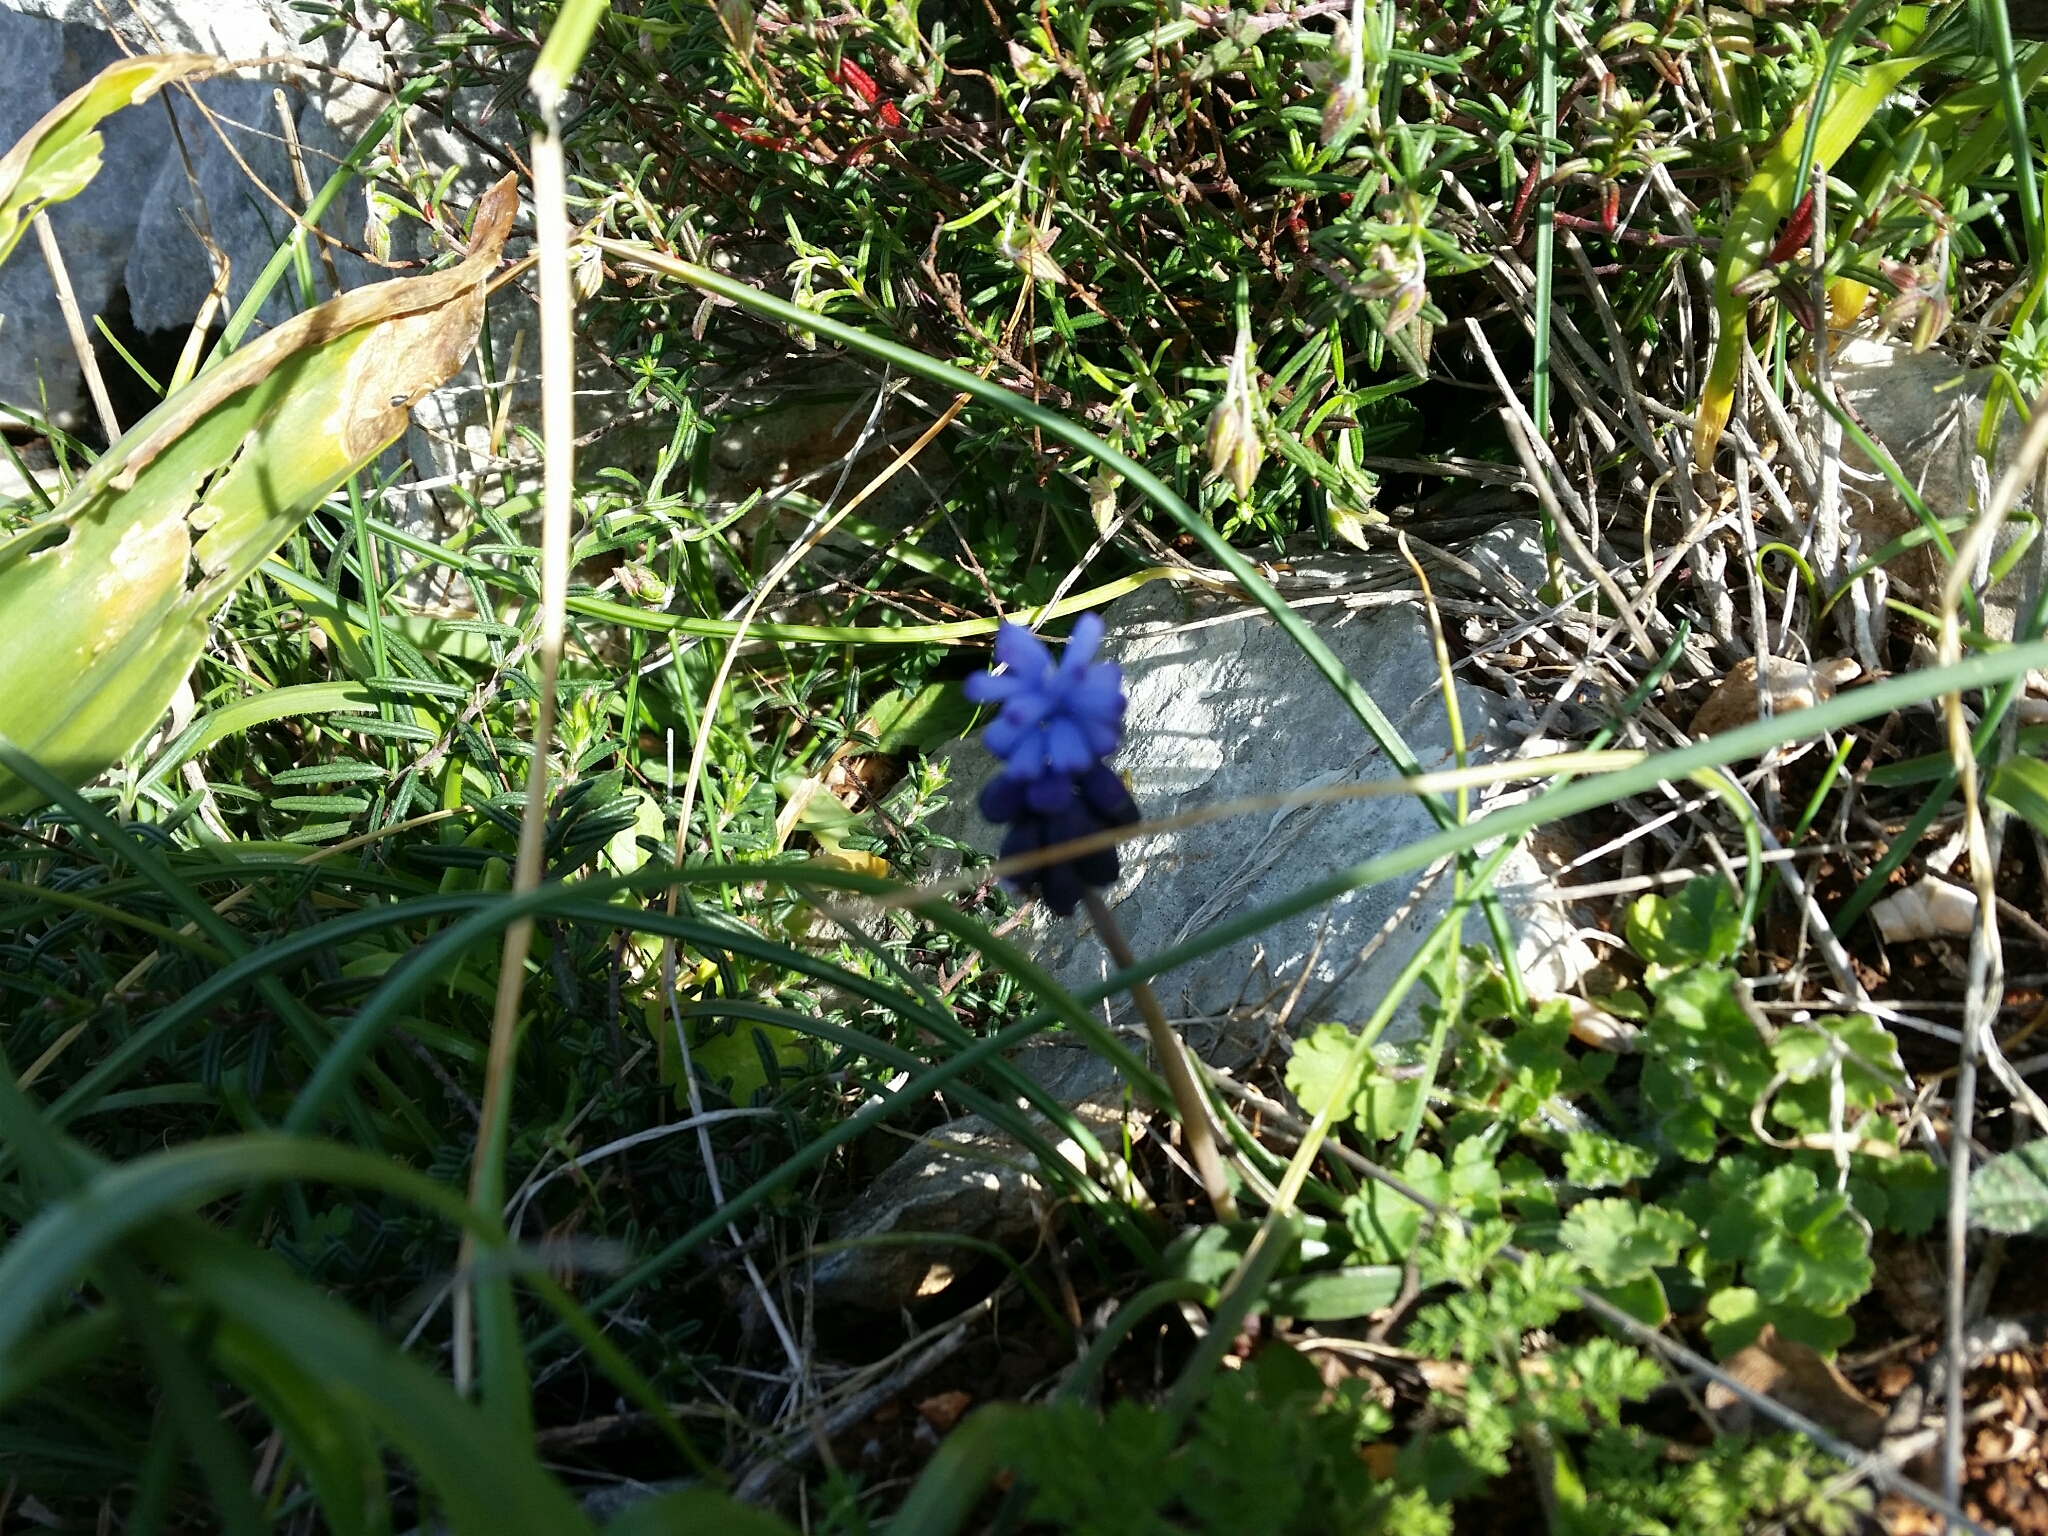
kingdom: Plantae
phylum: Tracheophyta
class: Liliopsida
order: Asparagales
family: Asparagaceae
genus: Muscari
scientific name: Muscari neglectum
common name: Grape-hyacinth
